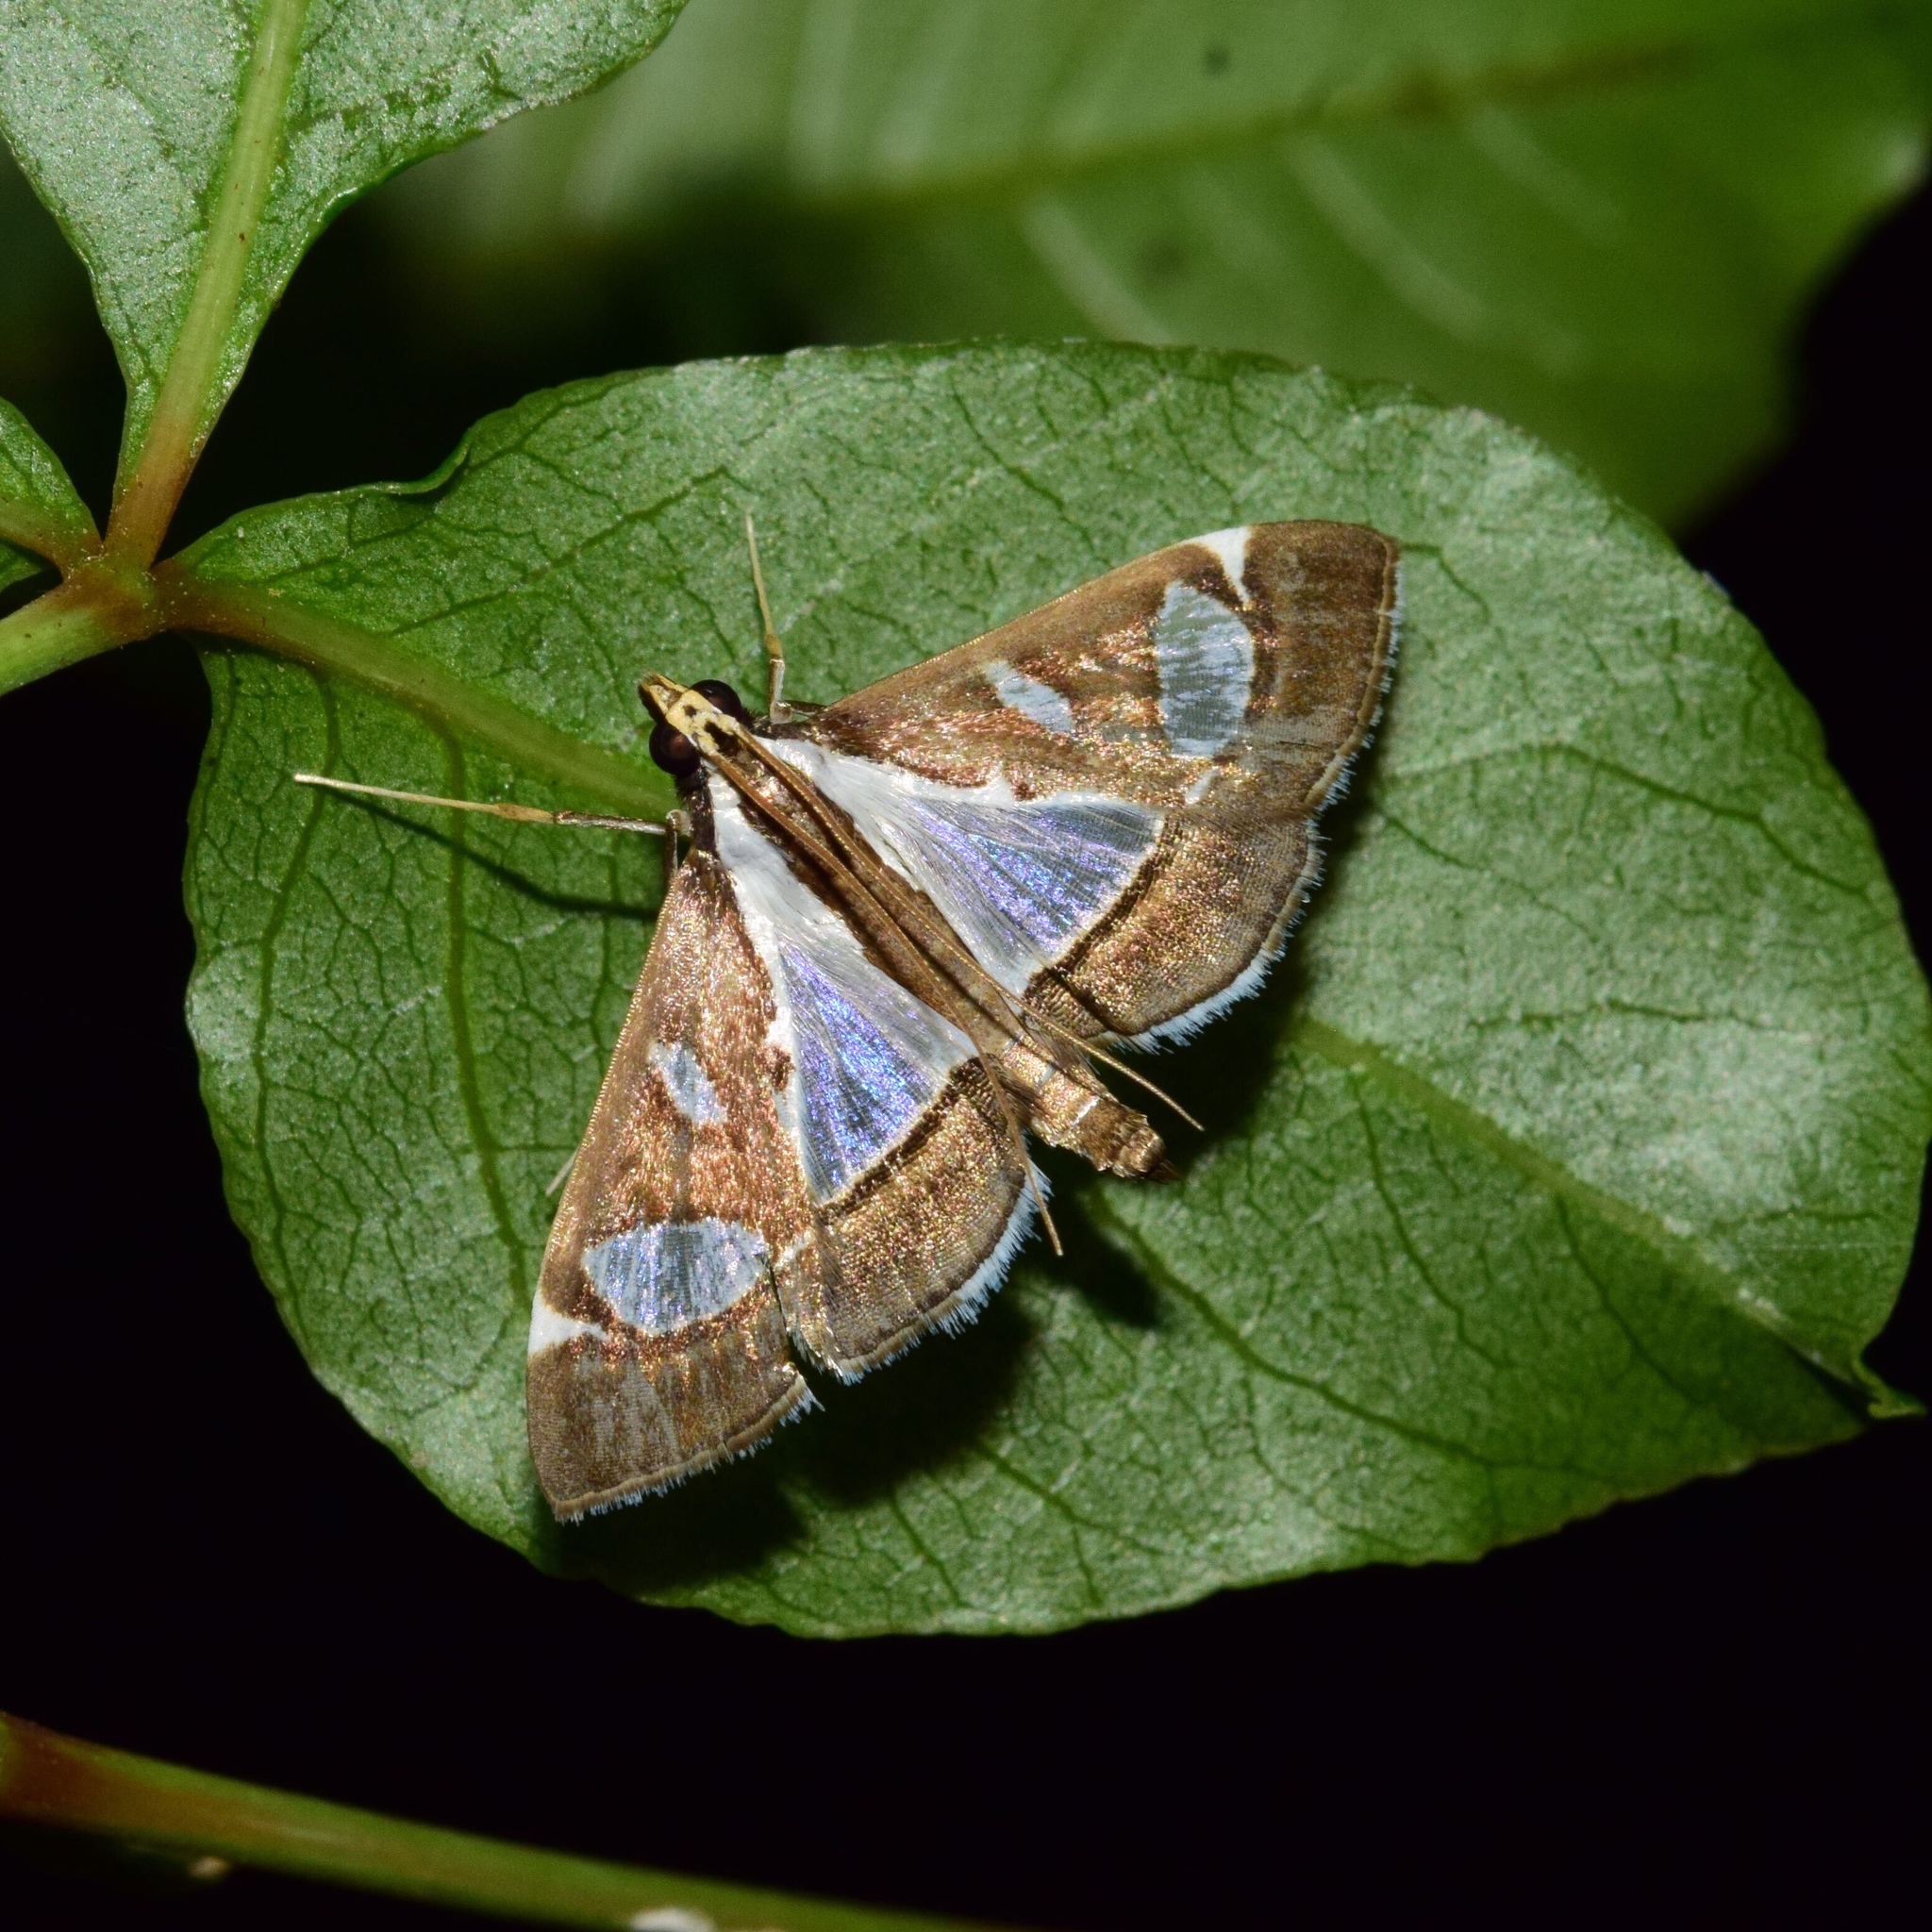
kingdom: Animalia
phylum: Arthropoda
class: Insecta
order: Lepidoptera
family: Crambidae
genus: Glyphodes
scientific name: Glyphodes bicolor
